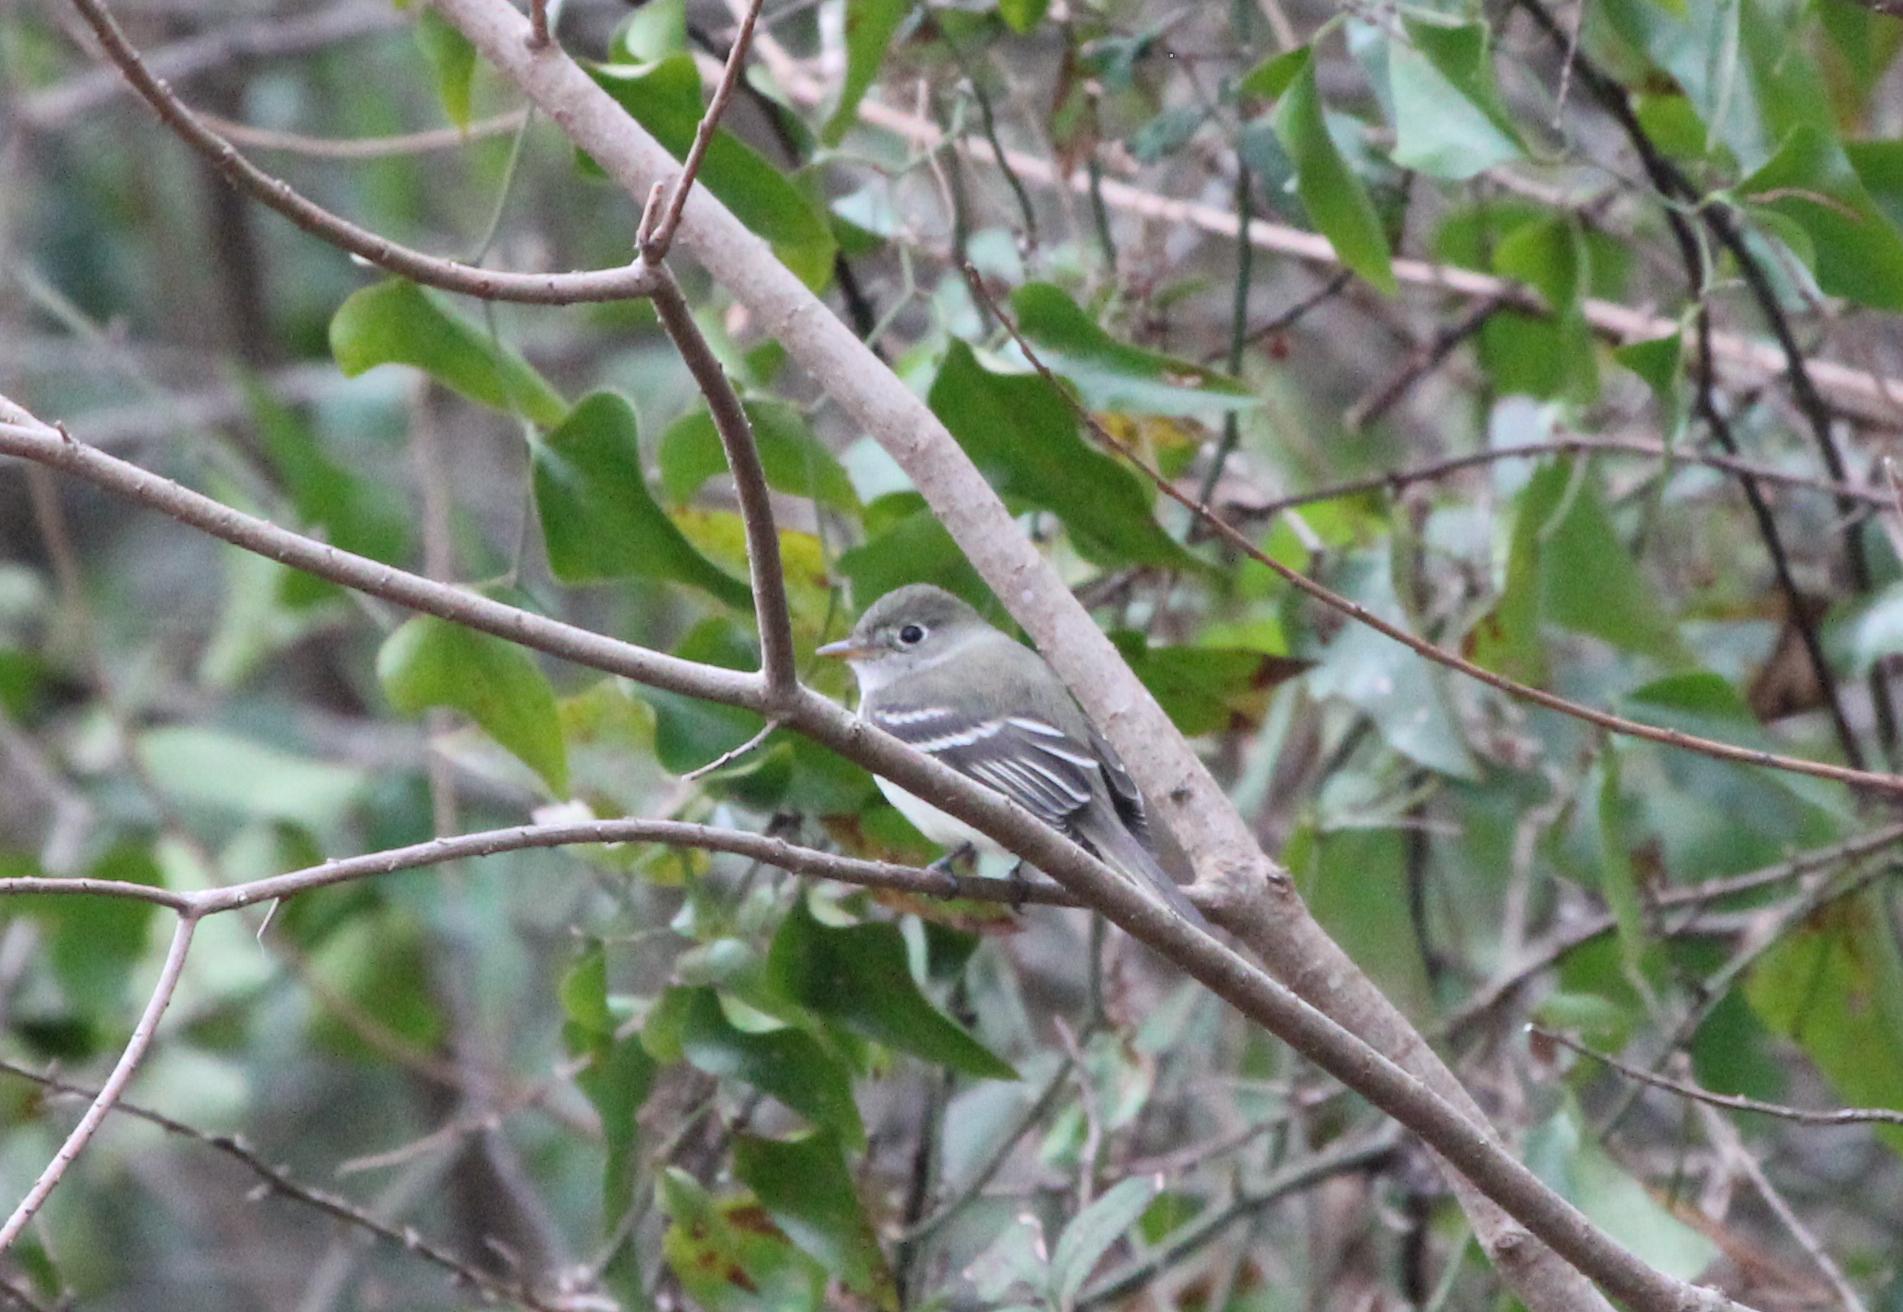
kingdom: Animalia
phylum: Chordata
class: Aves
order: Passeriformes
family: Tyrannidae
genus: Empidonax
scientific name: Empidonax minimus
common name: Least flycatcher
